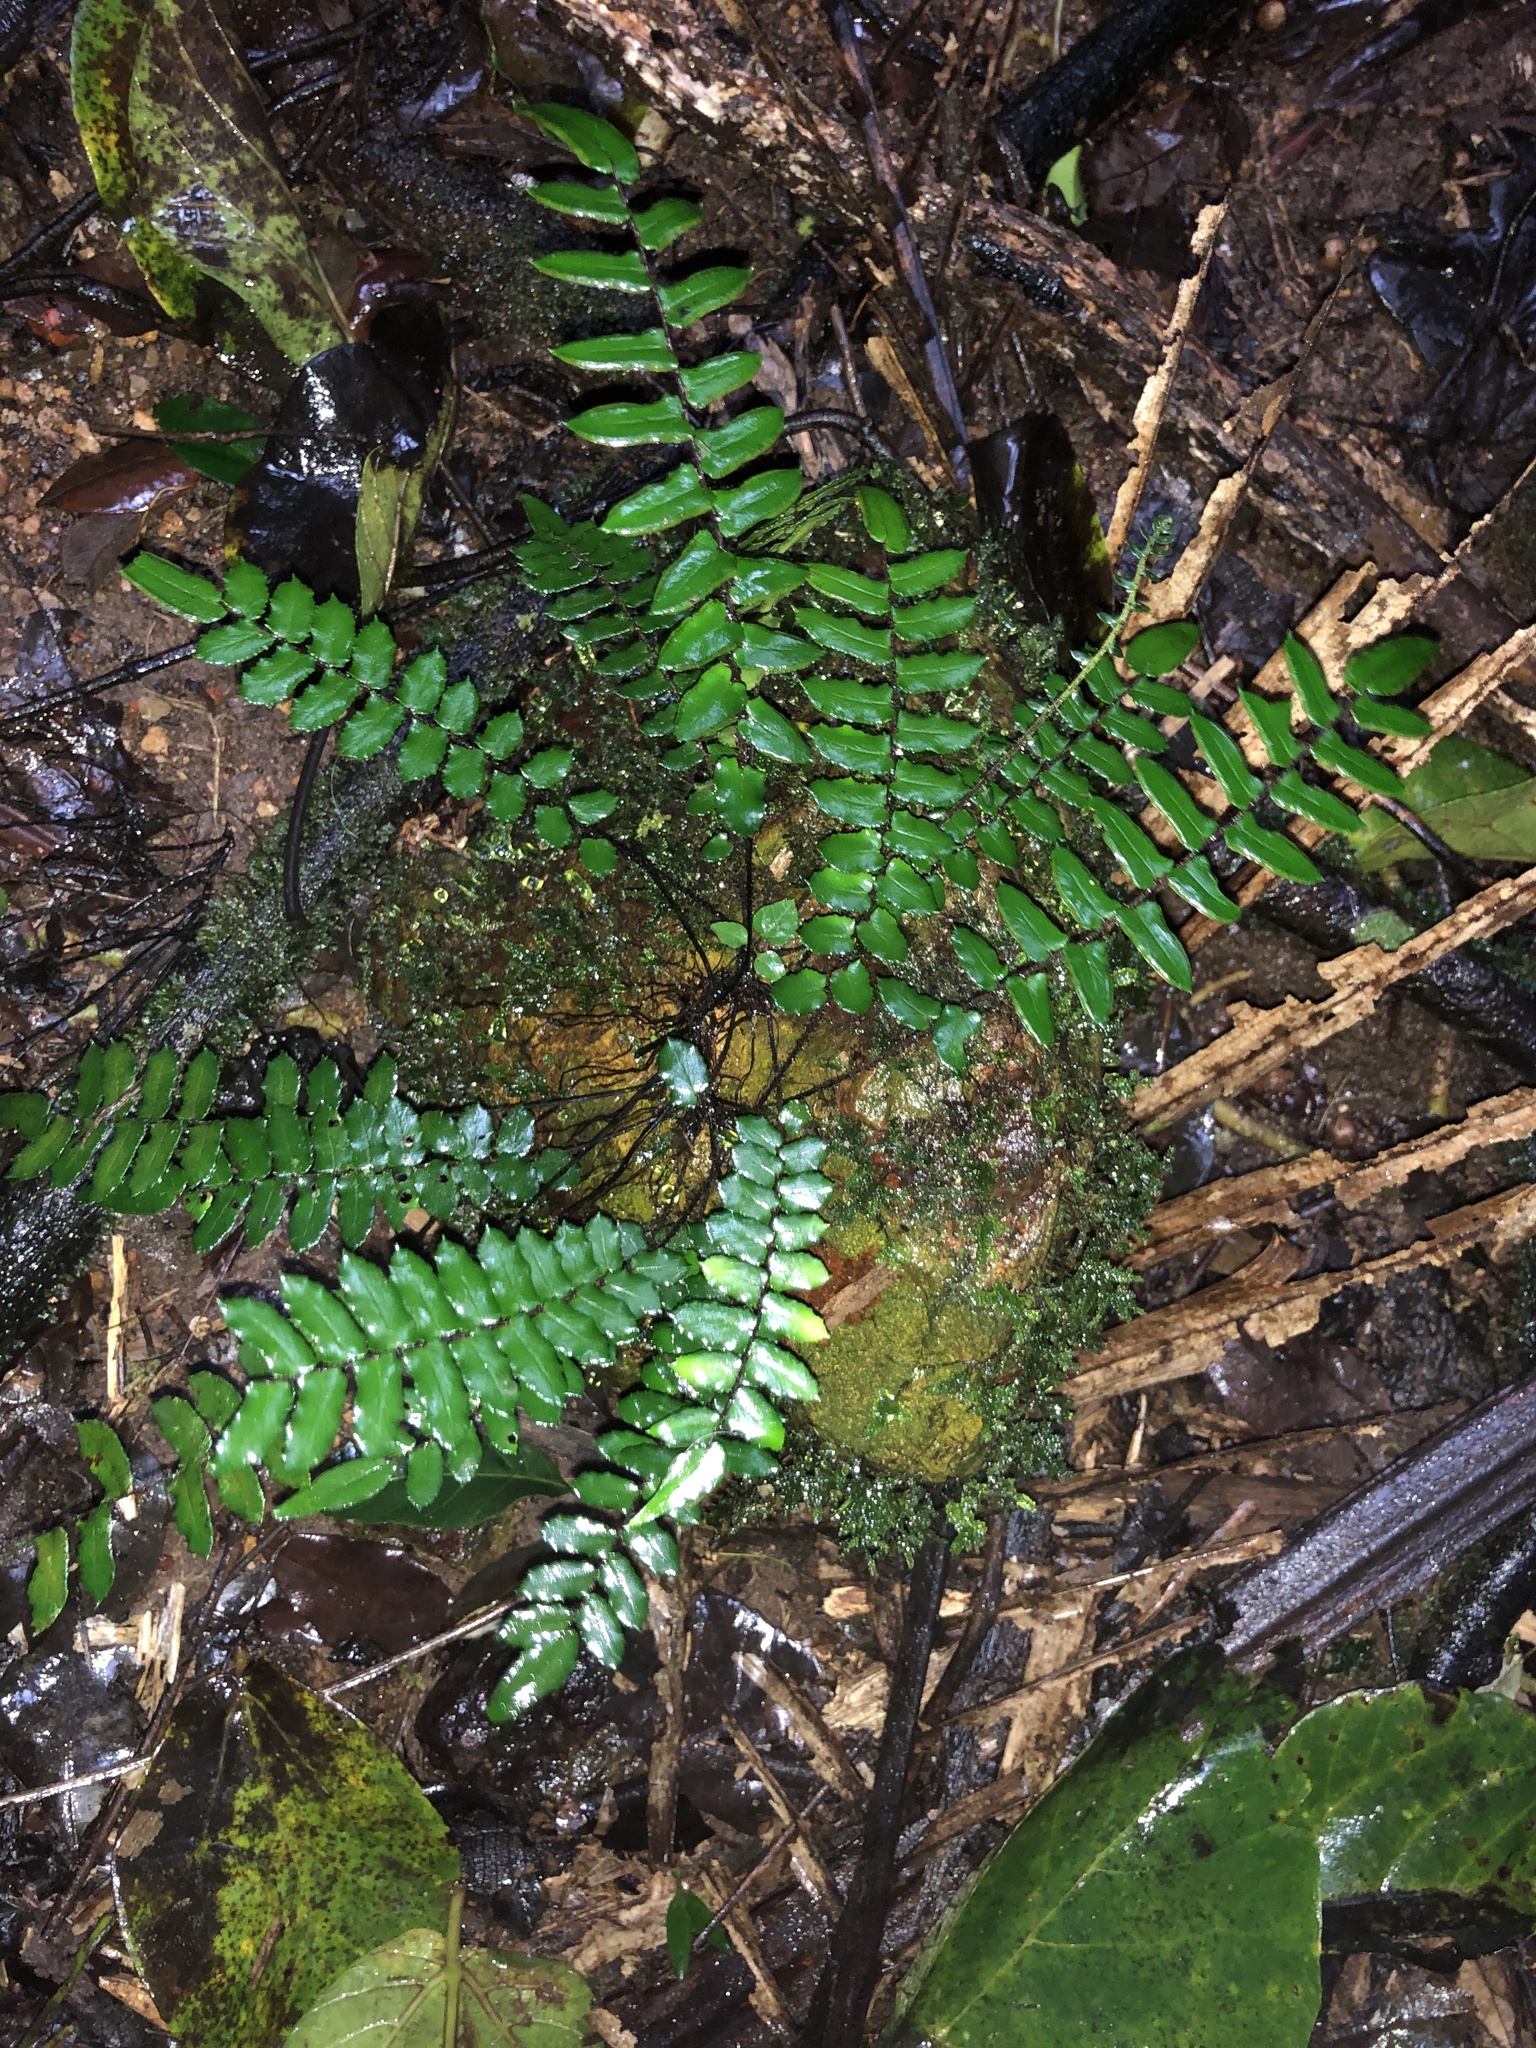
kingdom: Plantae
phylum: Tracheophyta
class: Polypodiopsida
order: Polypodiales
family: Pteridaceae
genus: Pellaea
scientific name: Pellaea nana
